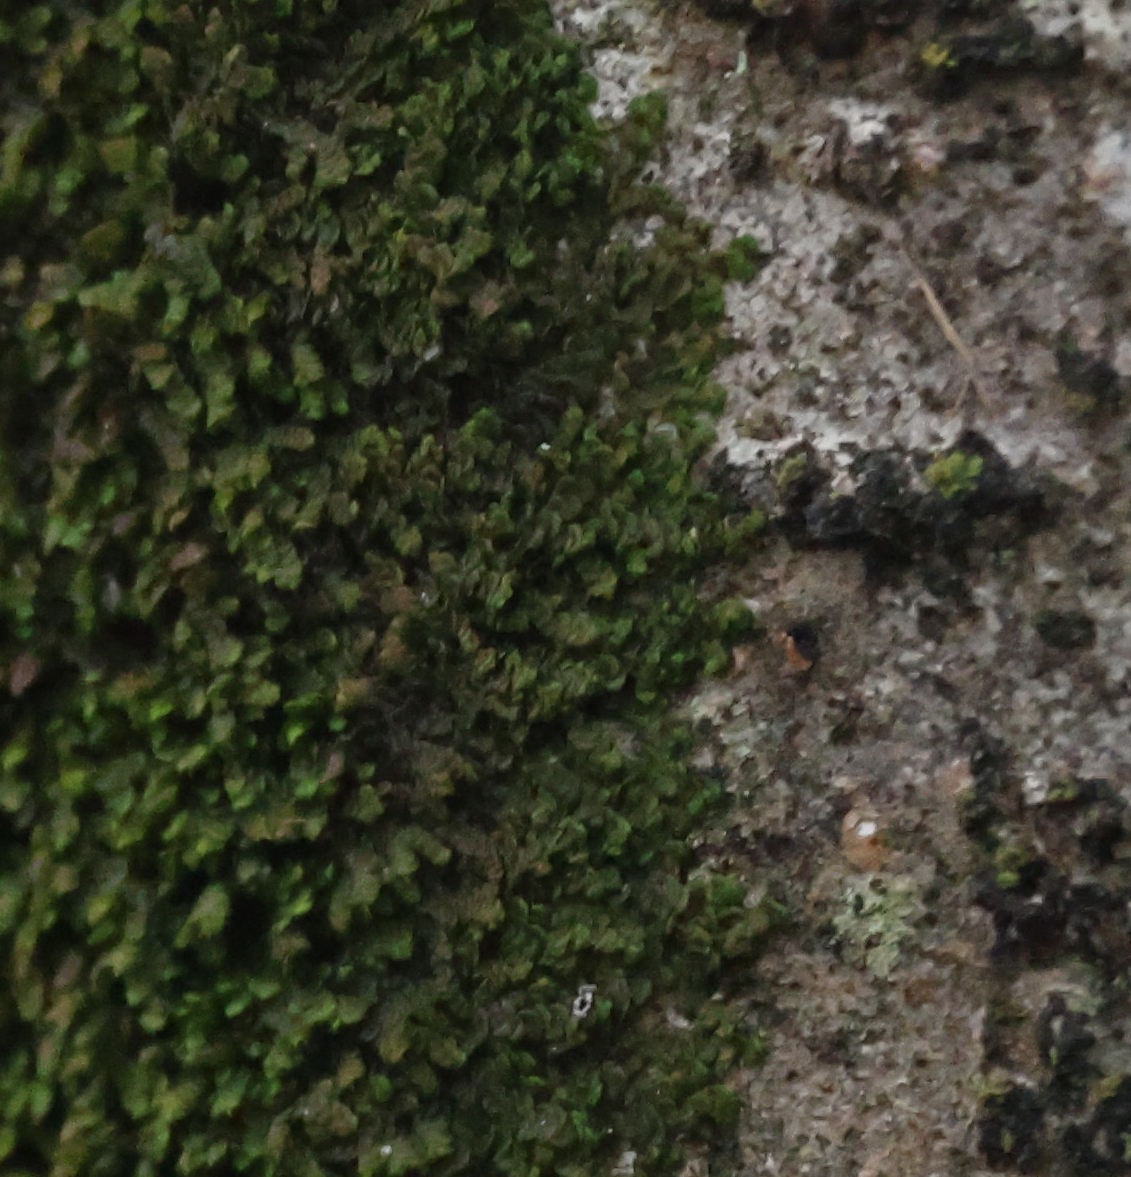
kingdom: Plantae
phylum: Marchantiophyta
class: Jungermanniopsida
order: Porellales
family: Frullaniaceae
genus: Frullania
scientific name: Frullania dilatata
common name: Dilated scalewort
